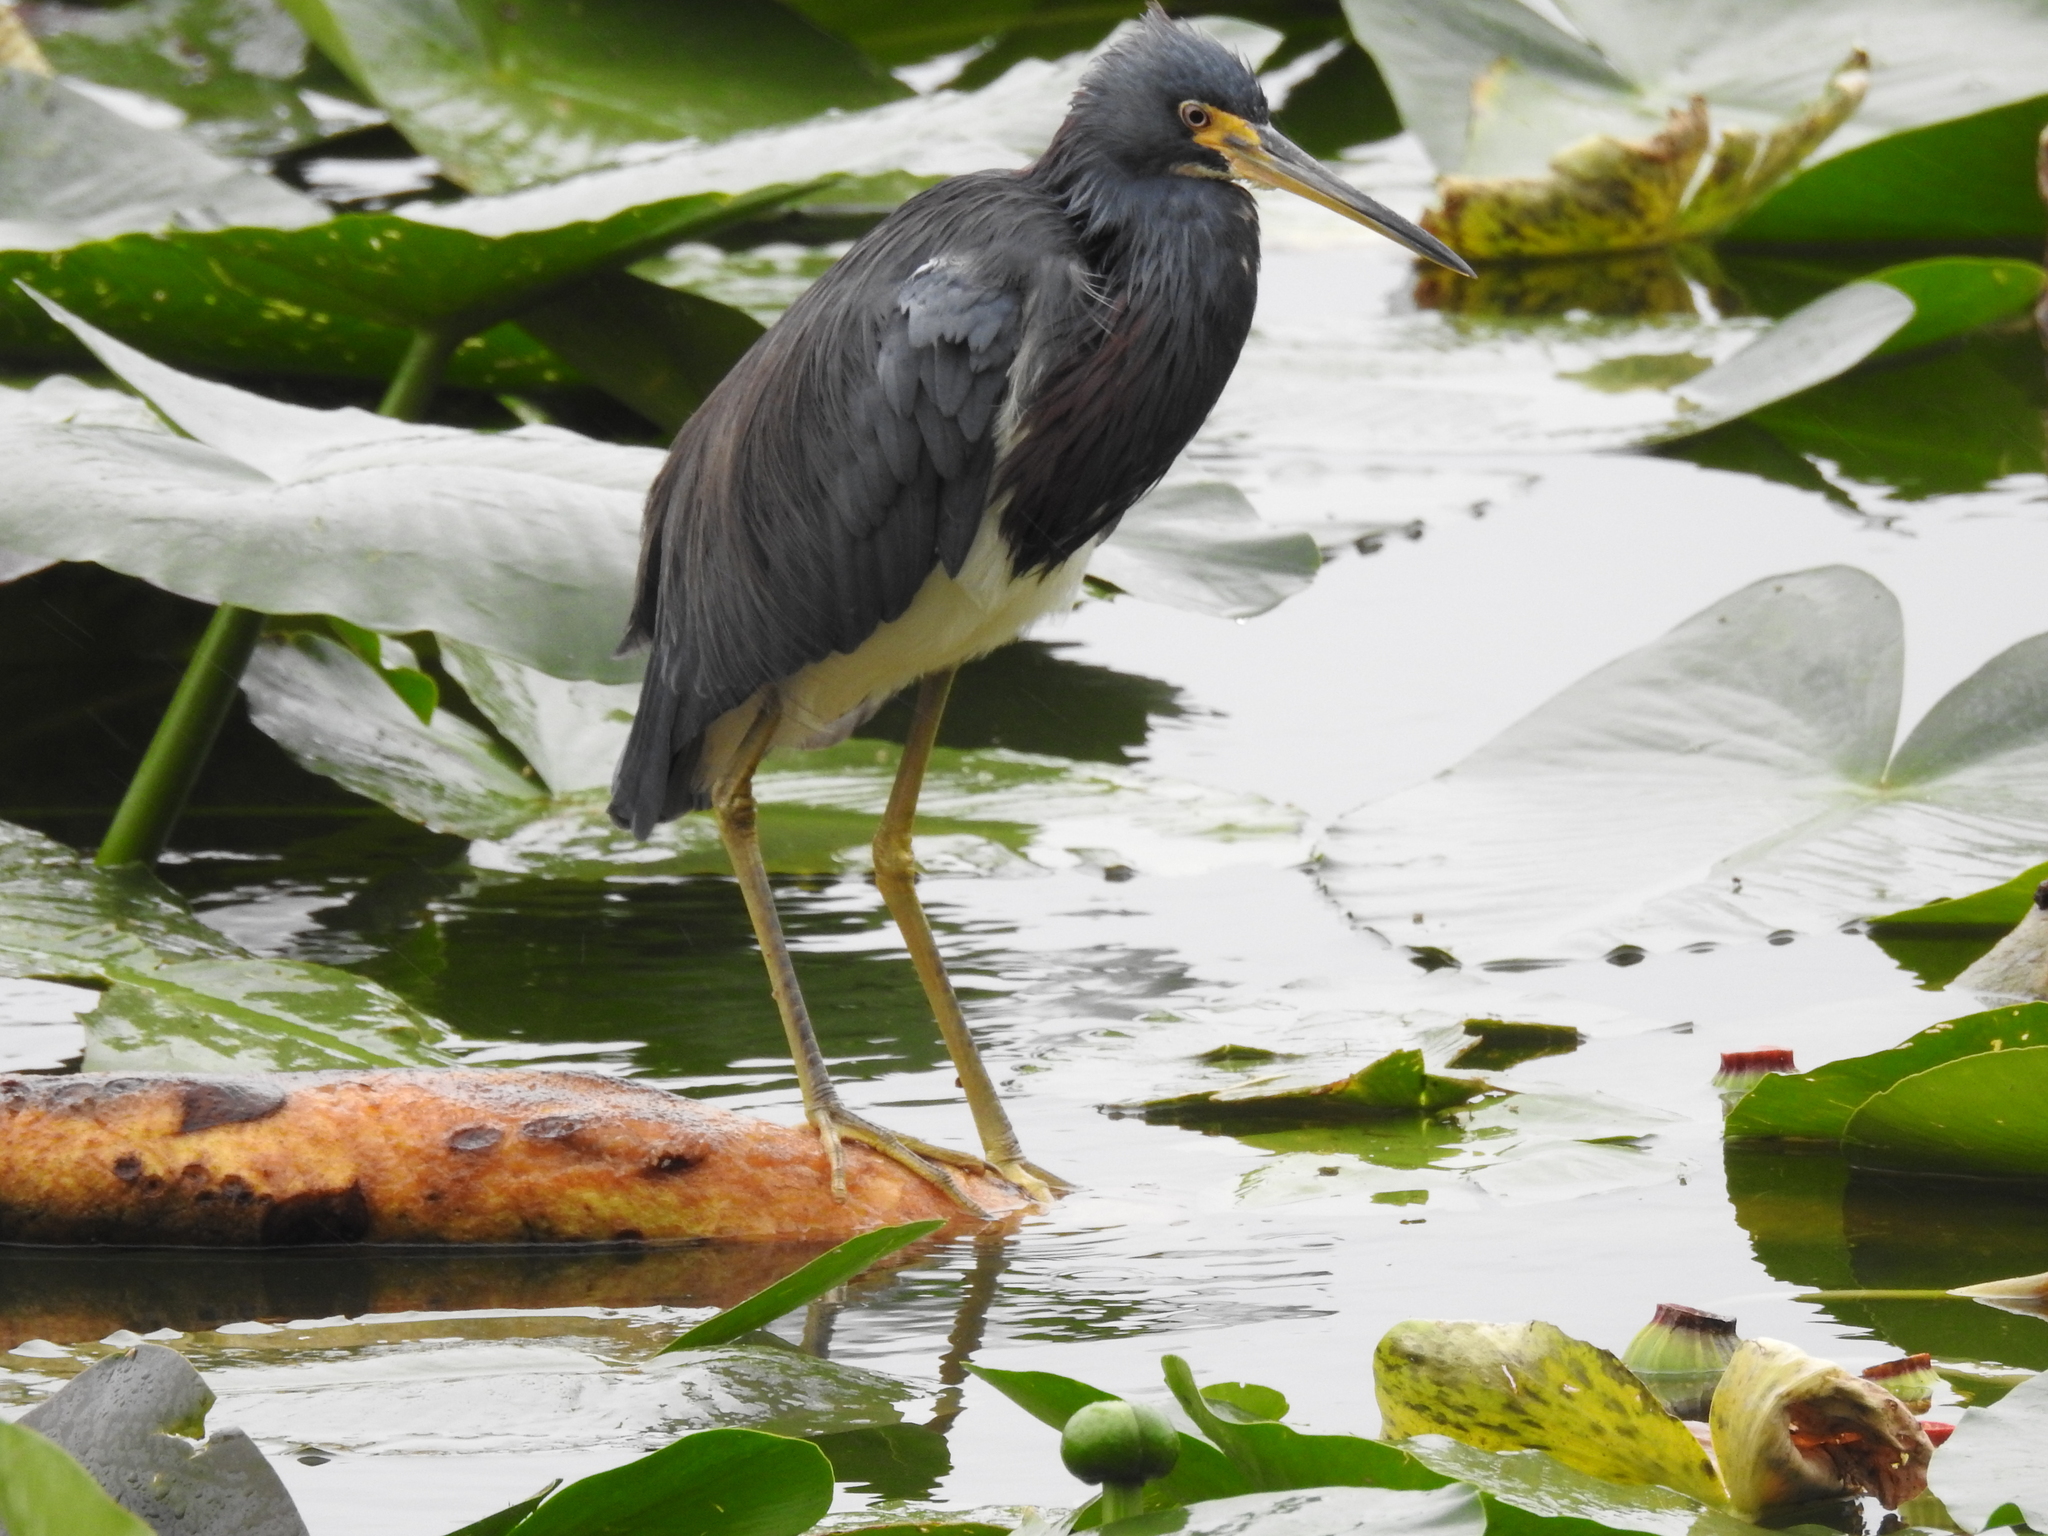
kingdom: Animalia
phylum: Chordata
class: Aves
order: Pelecaniformes
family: Ardeidae
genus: Egretta
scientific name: Egretta tricolor
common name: Tricolored heron
